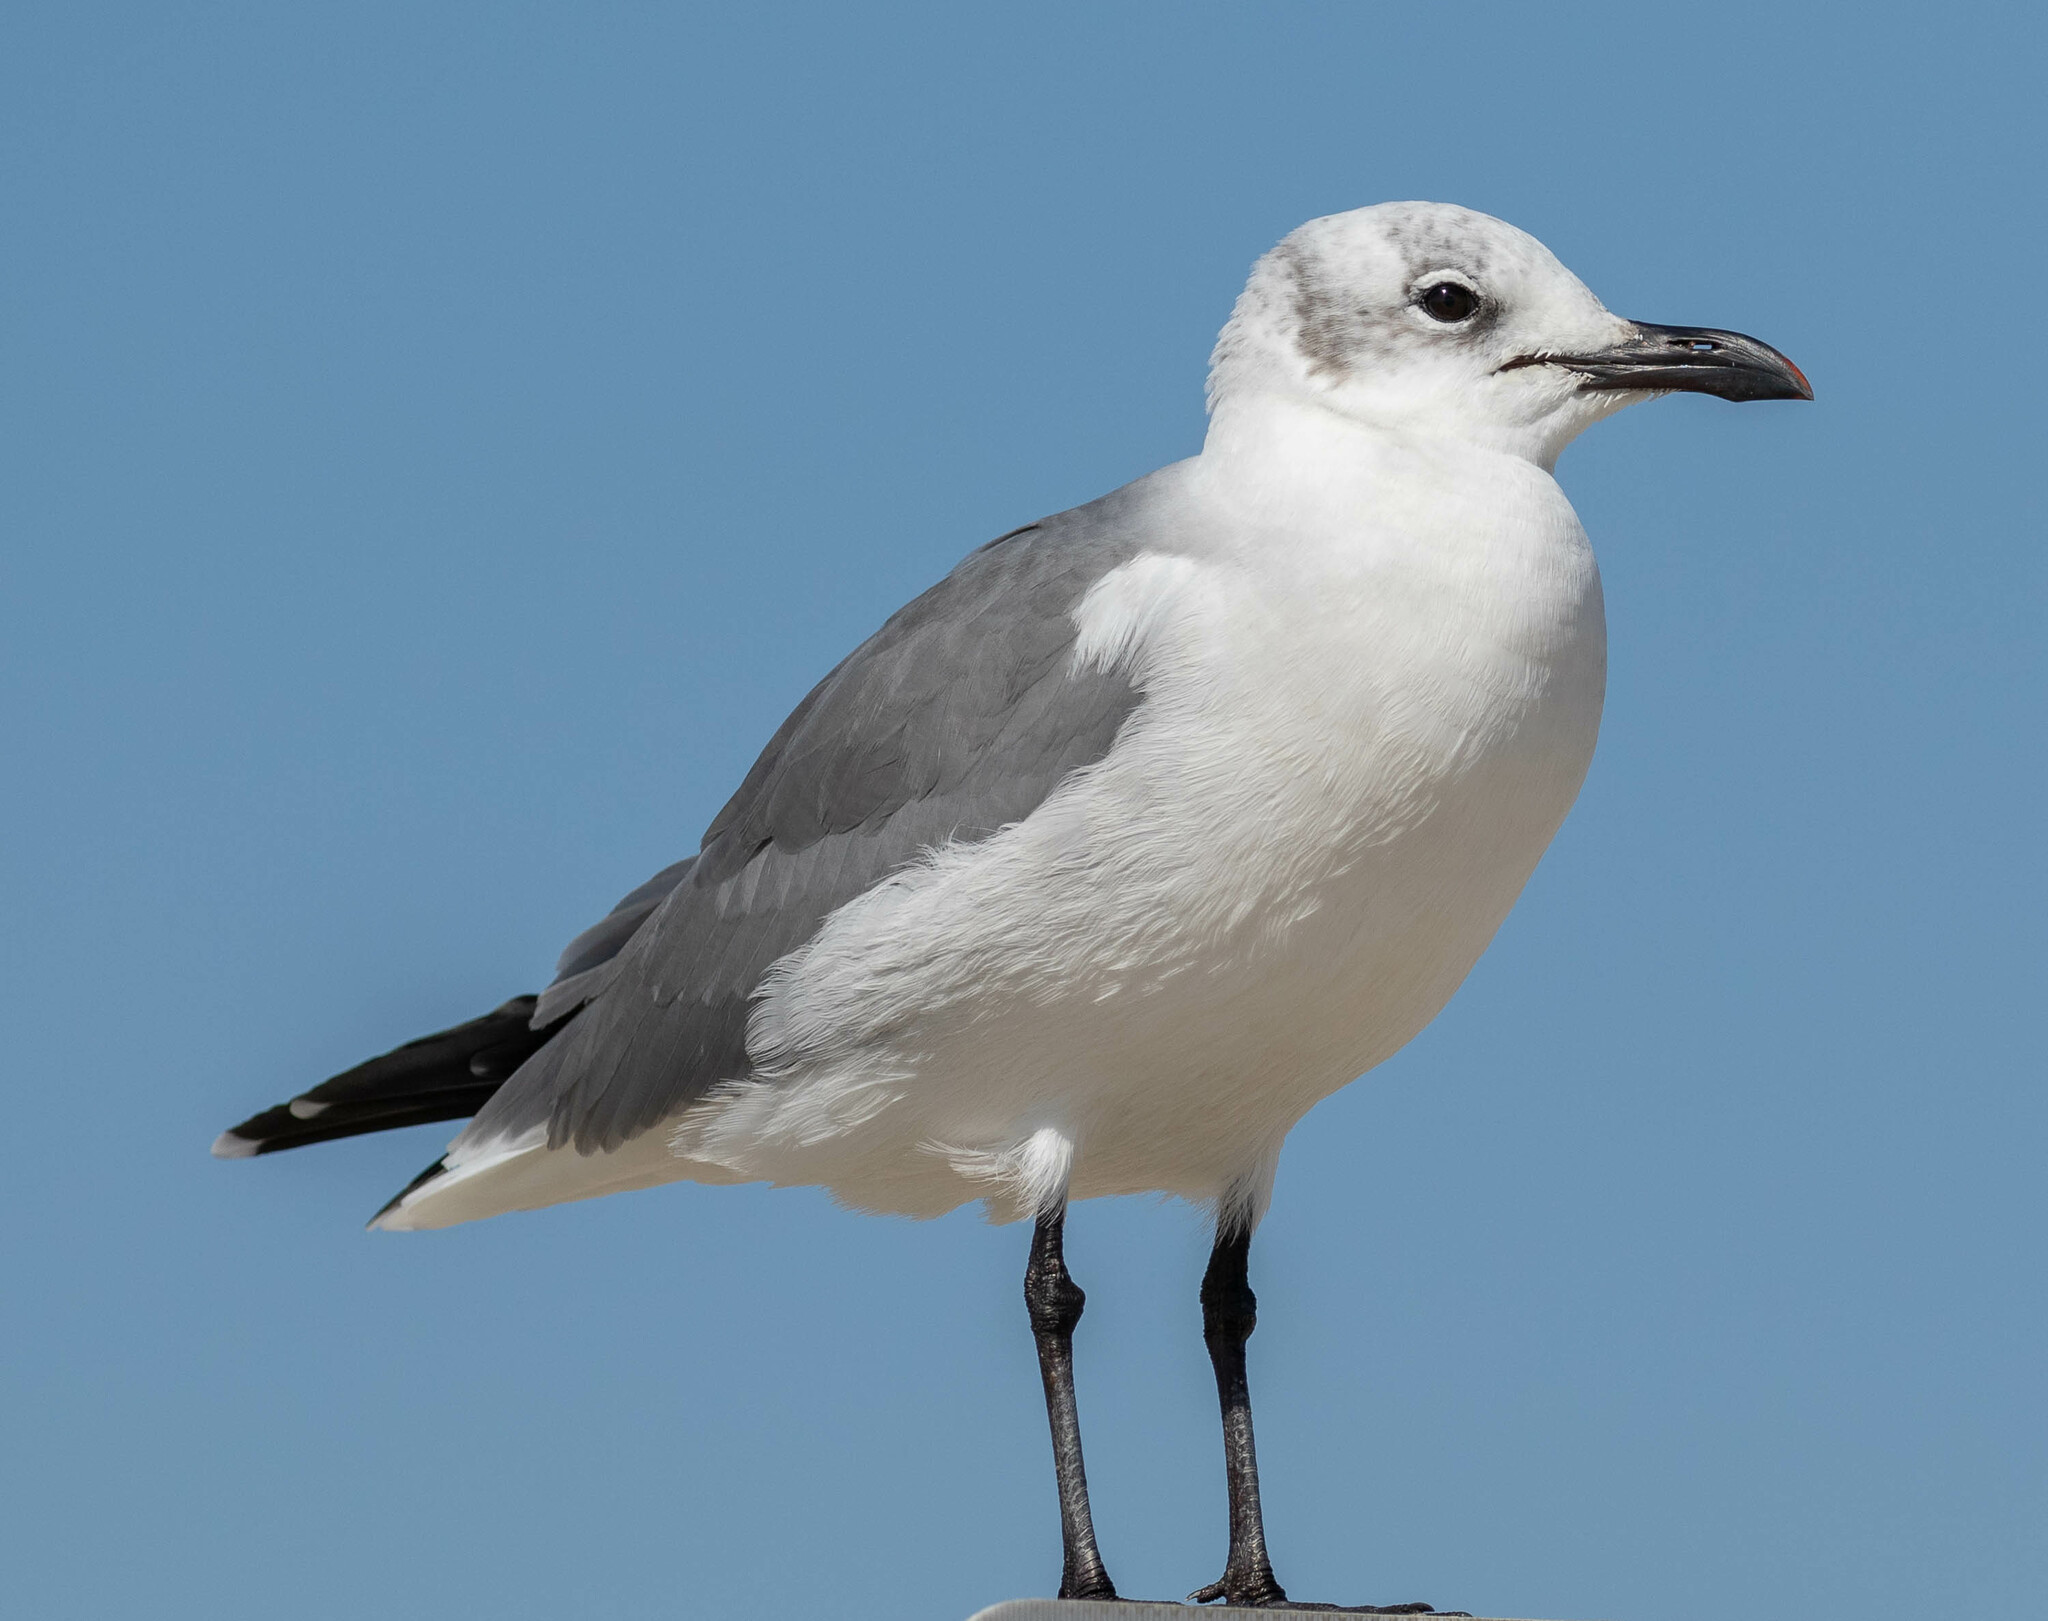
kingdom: Animalia
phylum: Chordata
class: Aves
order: Charadriiformes
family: Laridae
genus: Leucophaeus
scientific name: Leucophaeus atricilla
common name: Laughing gull
